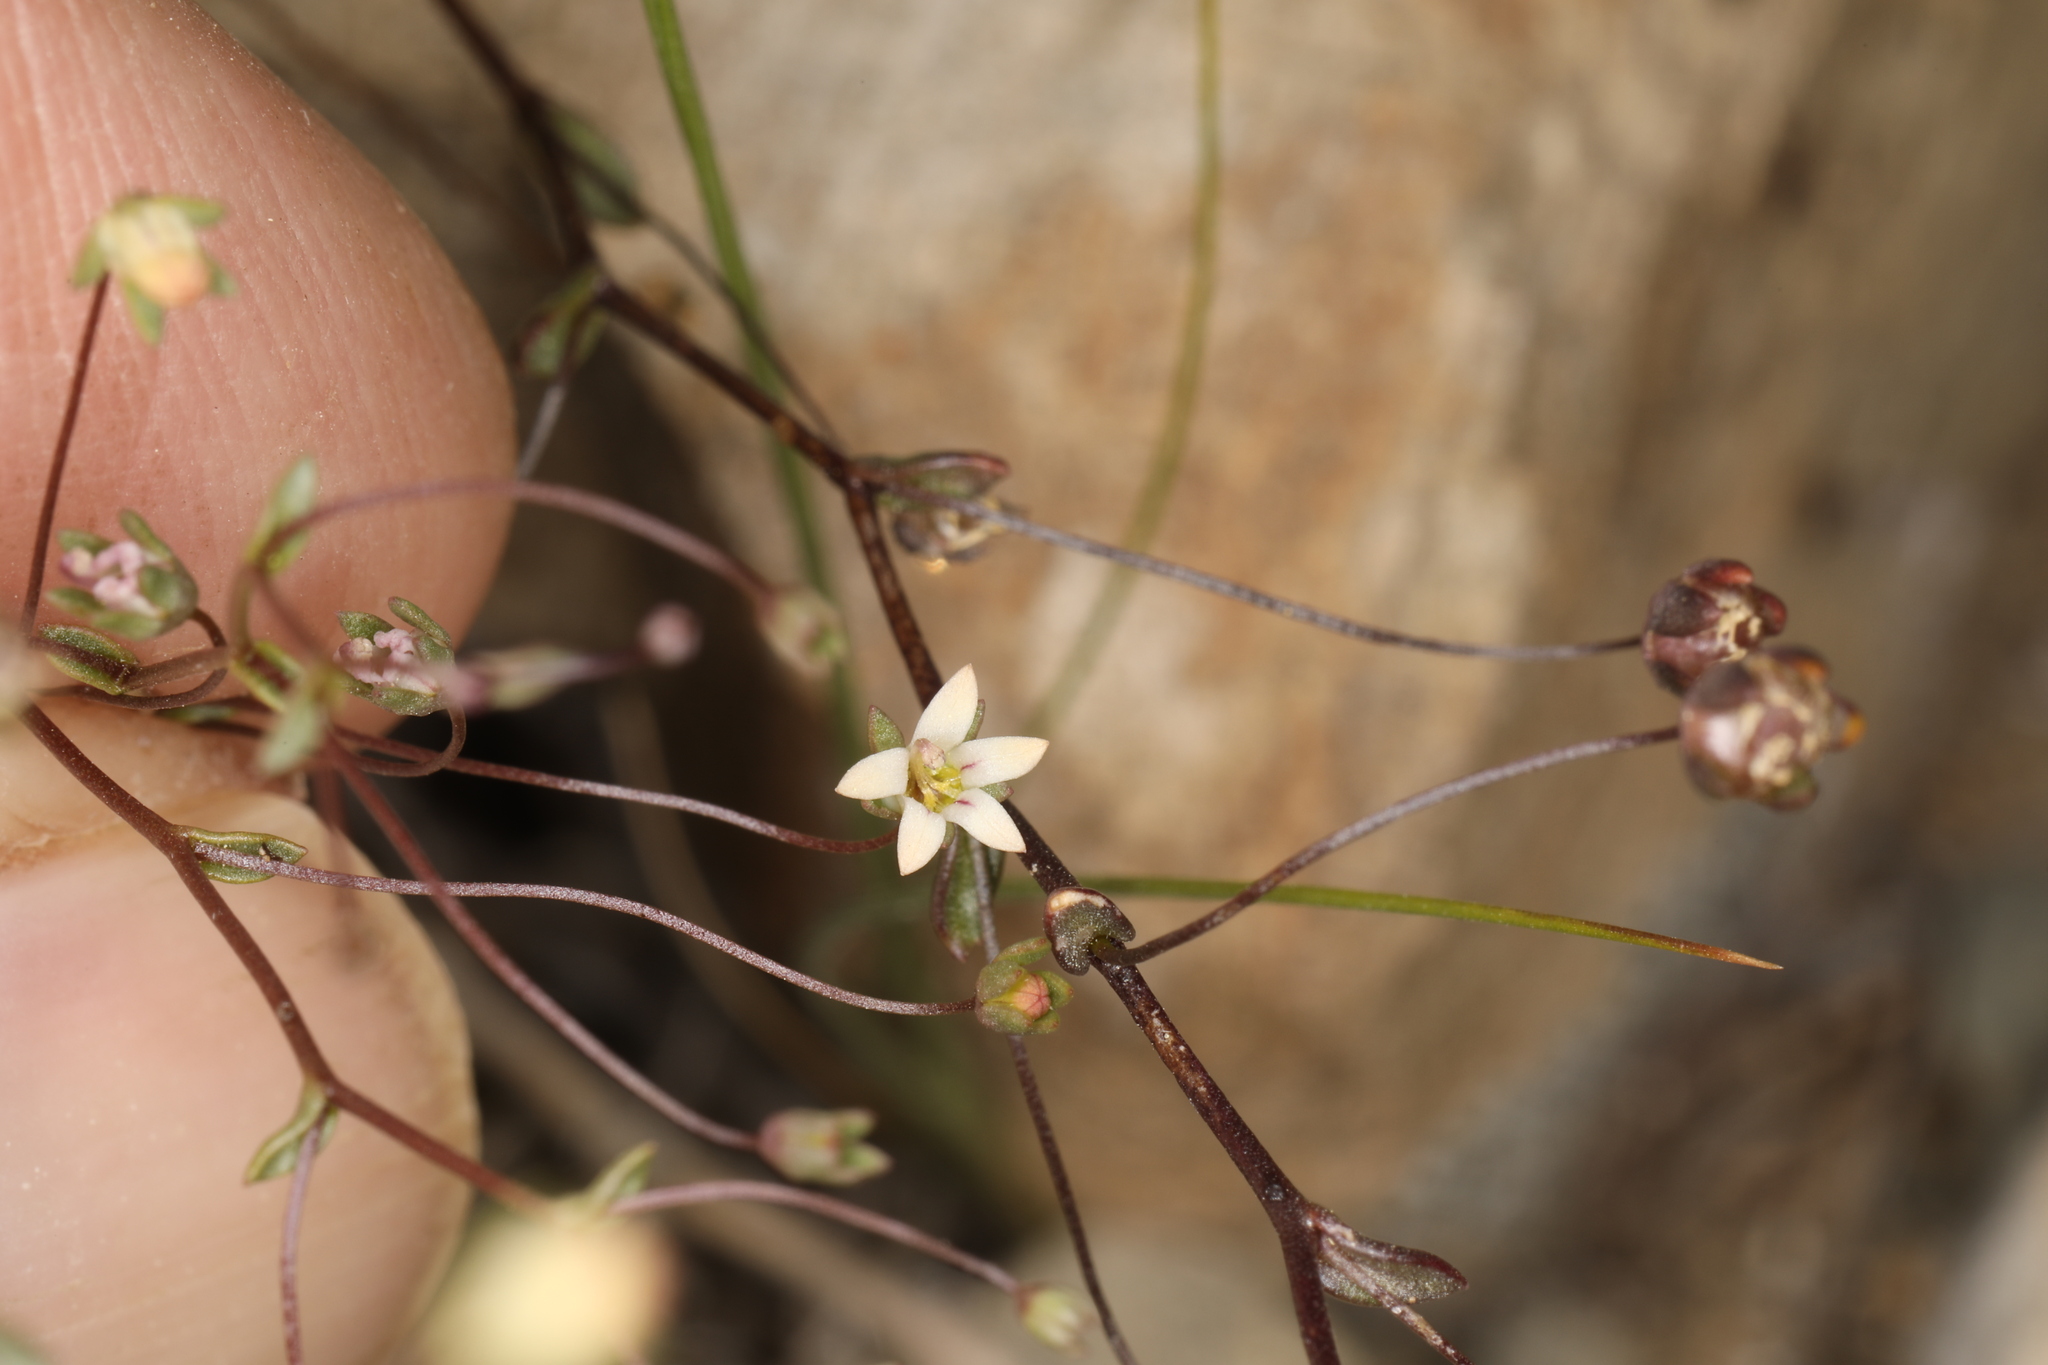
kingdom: Plantae
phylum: Tracheophyta
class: Magnoliopsida
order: Asterales
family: Campanulaceae
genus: Nemacladus
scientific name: Nemacladus inyoensis
